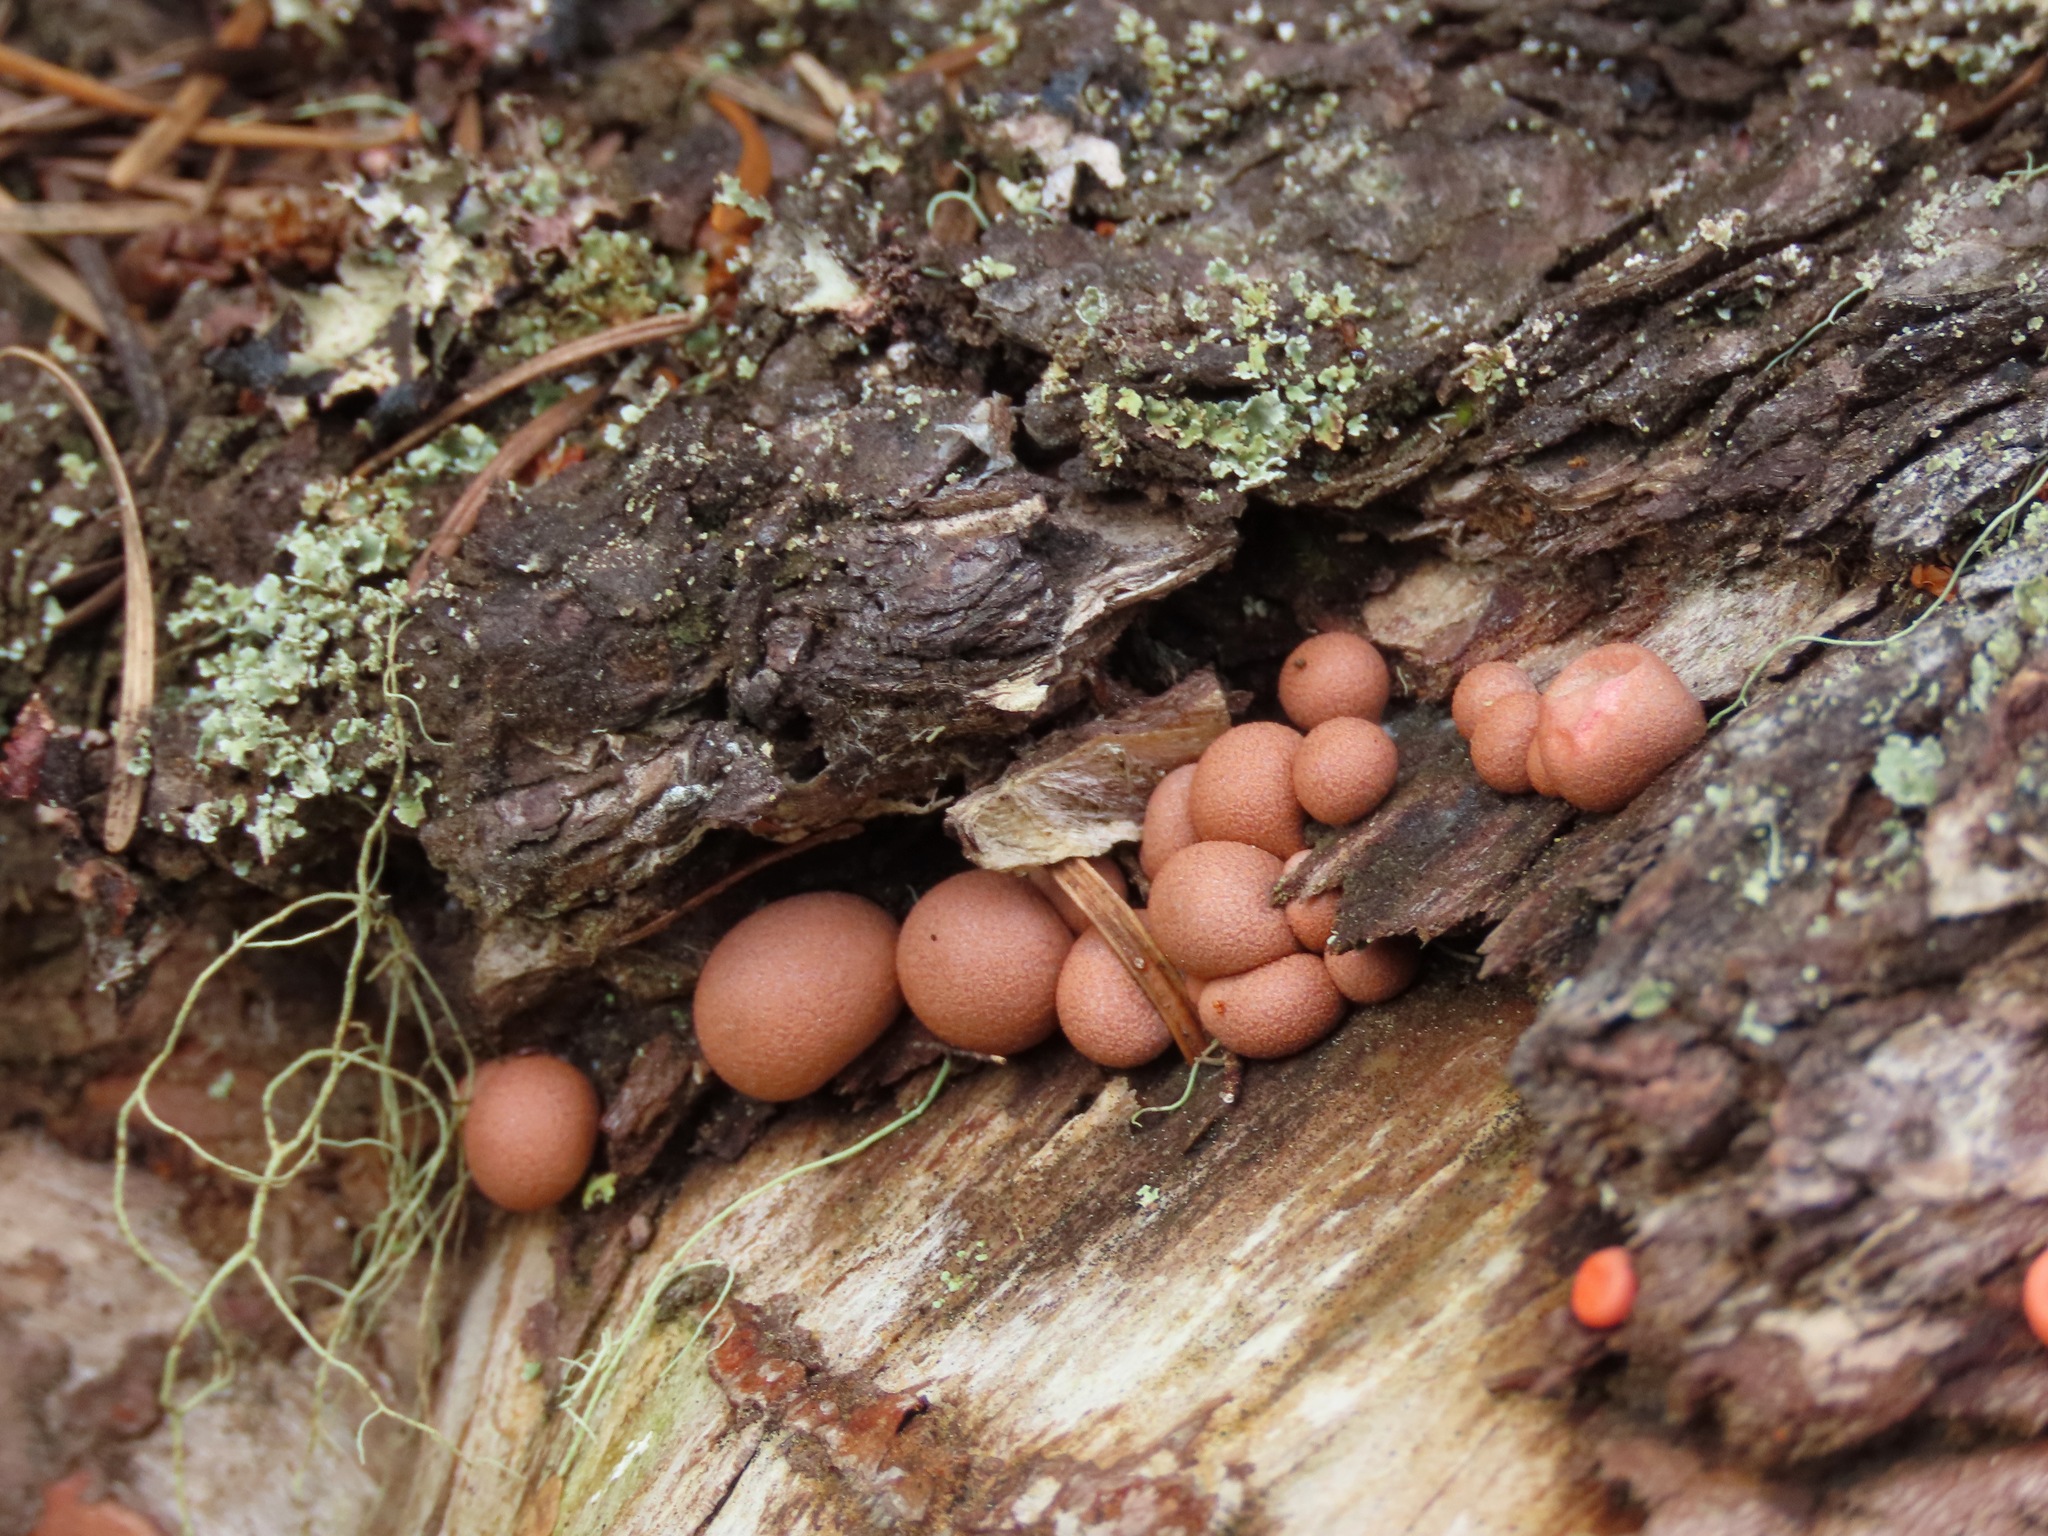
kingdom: Protozoa
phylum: Mycetozoa
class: Myxomycetes
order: Cribrariales
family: Tubiferaceae
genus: Lycogala
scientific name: Lycogala epidendrum
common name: Wolf's milk
